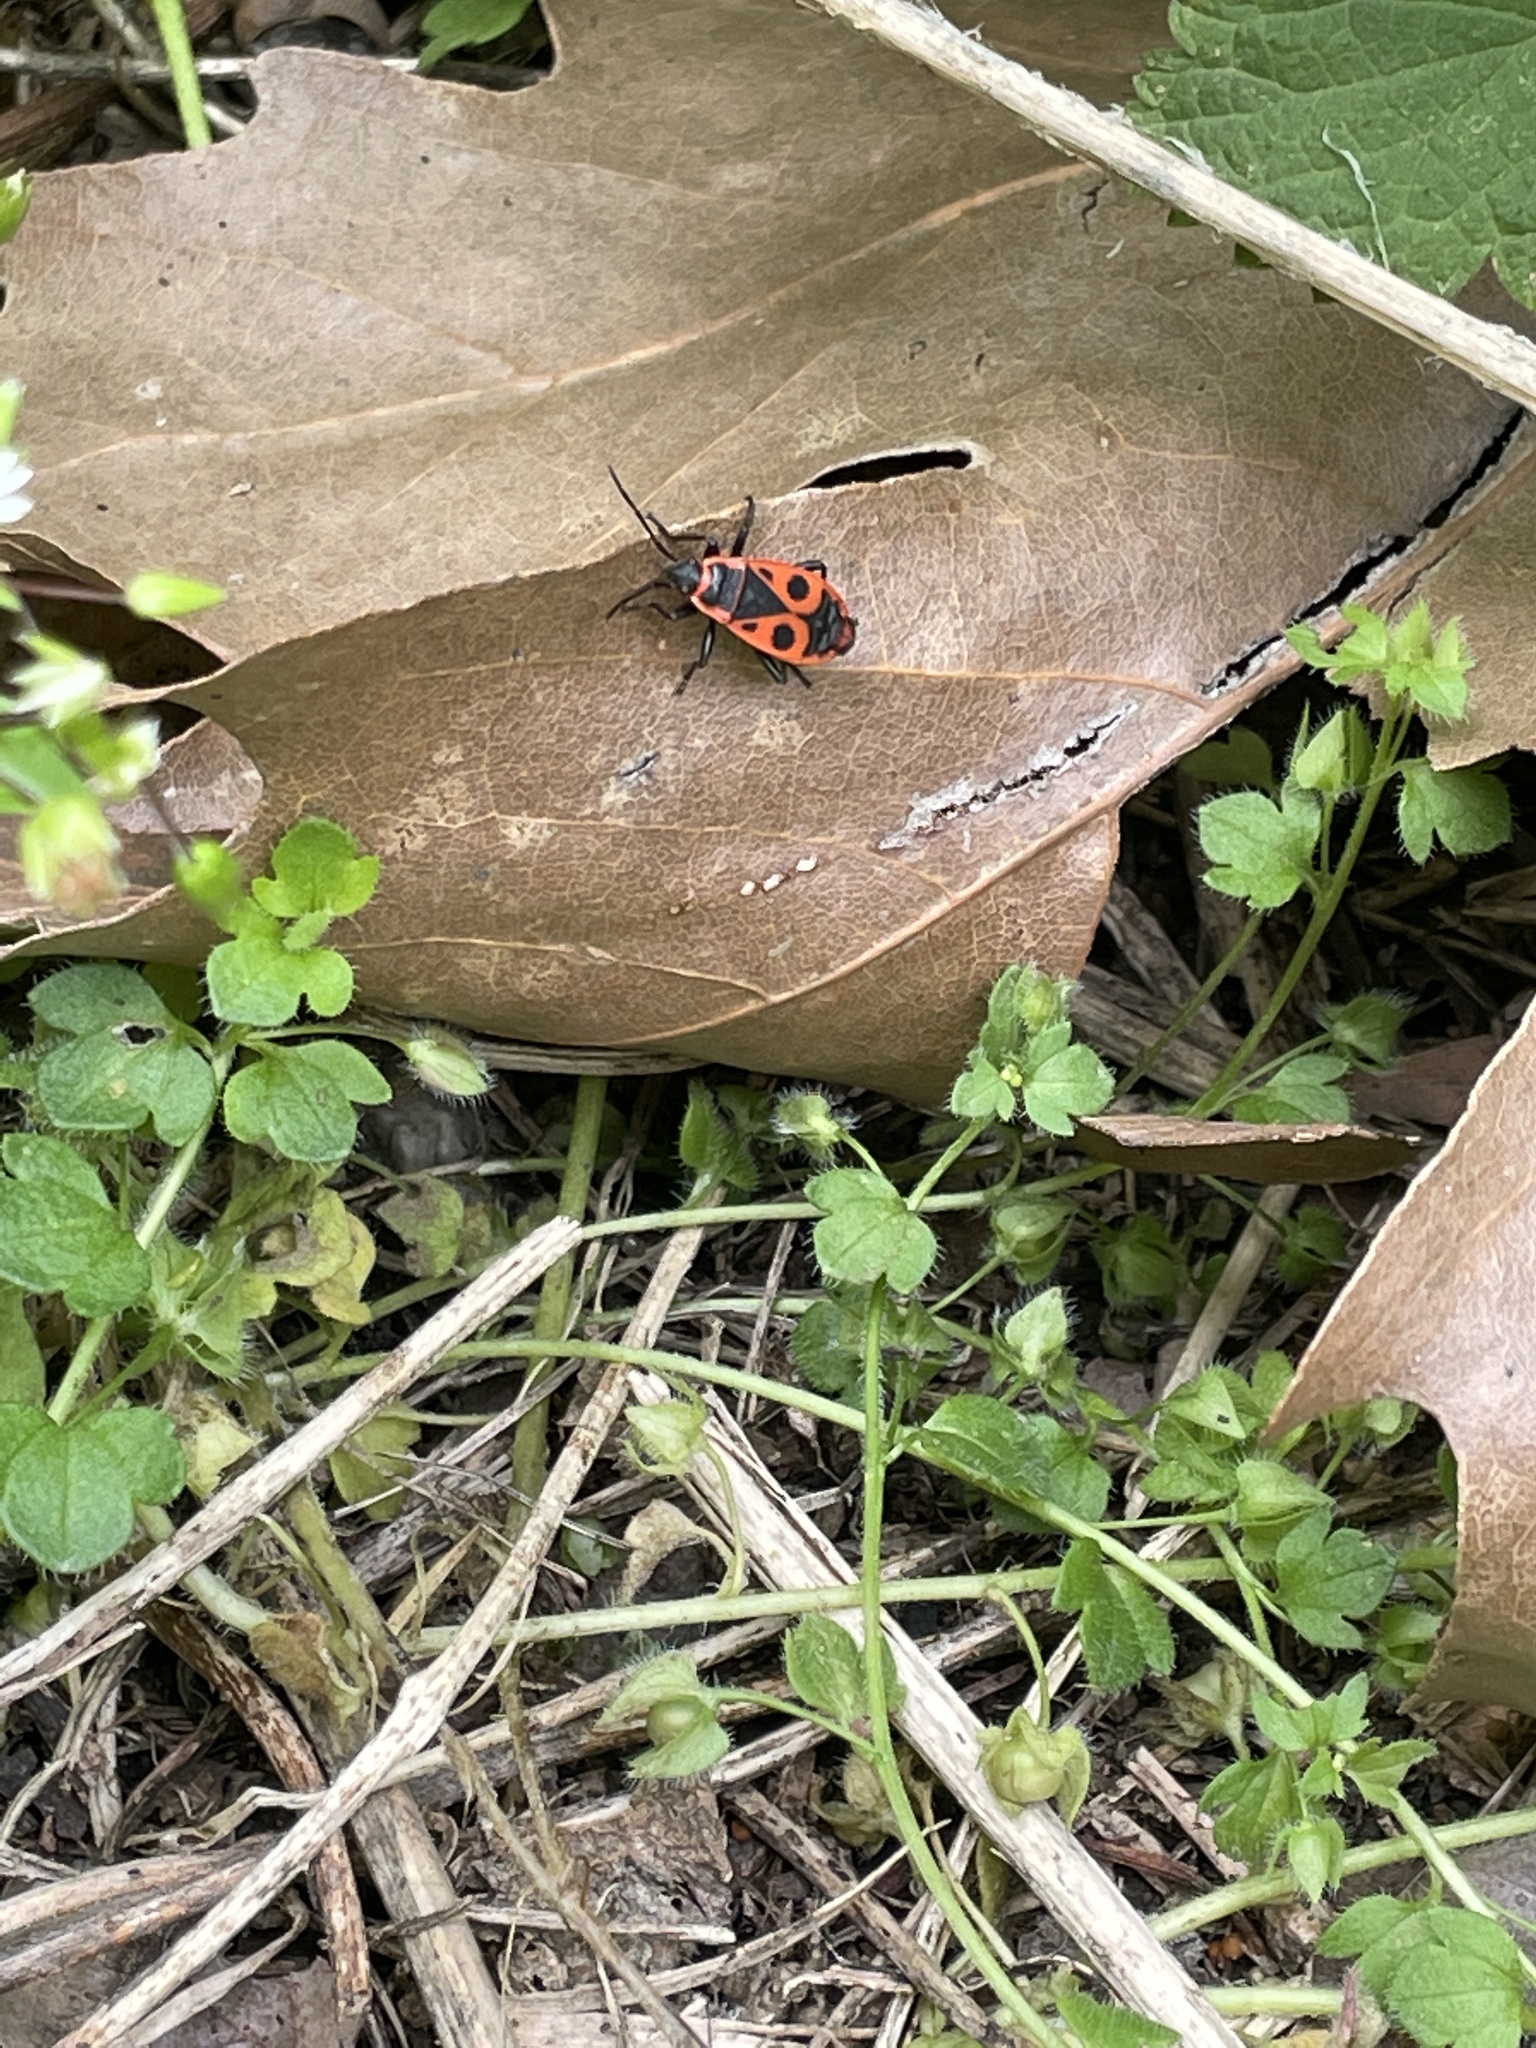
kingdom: Animalia
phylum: Arthropoda
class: Insecta
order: Hemiptera
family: Pyrrhocoridae
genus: Pyrrhocoris
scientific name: Pyrrhocoris apterus
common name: Firebug
